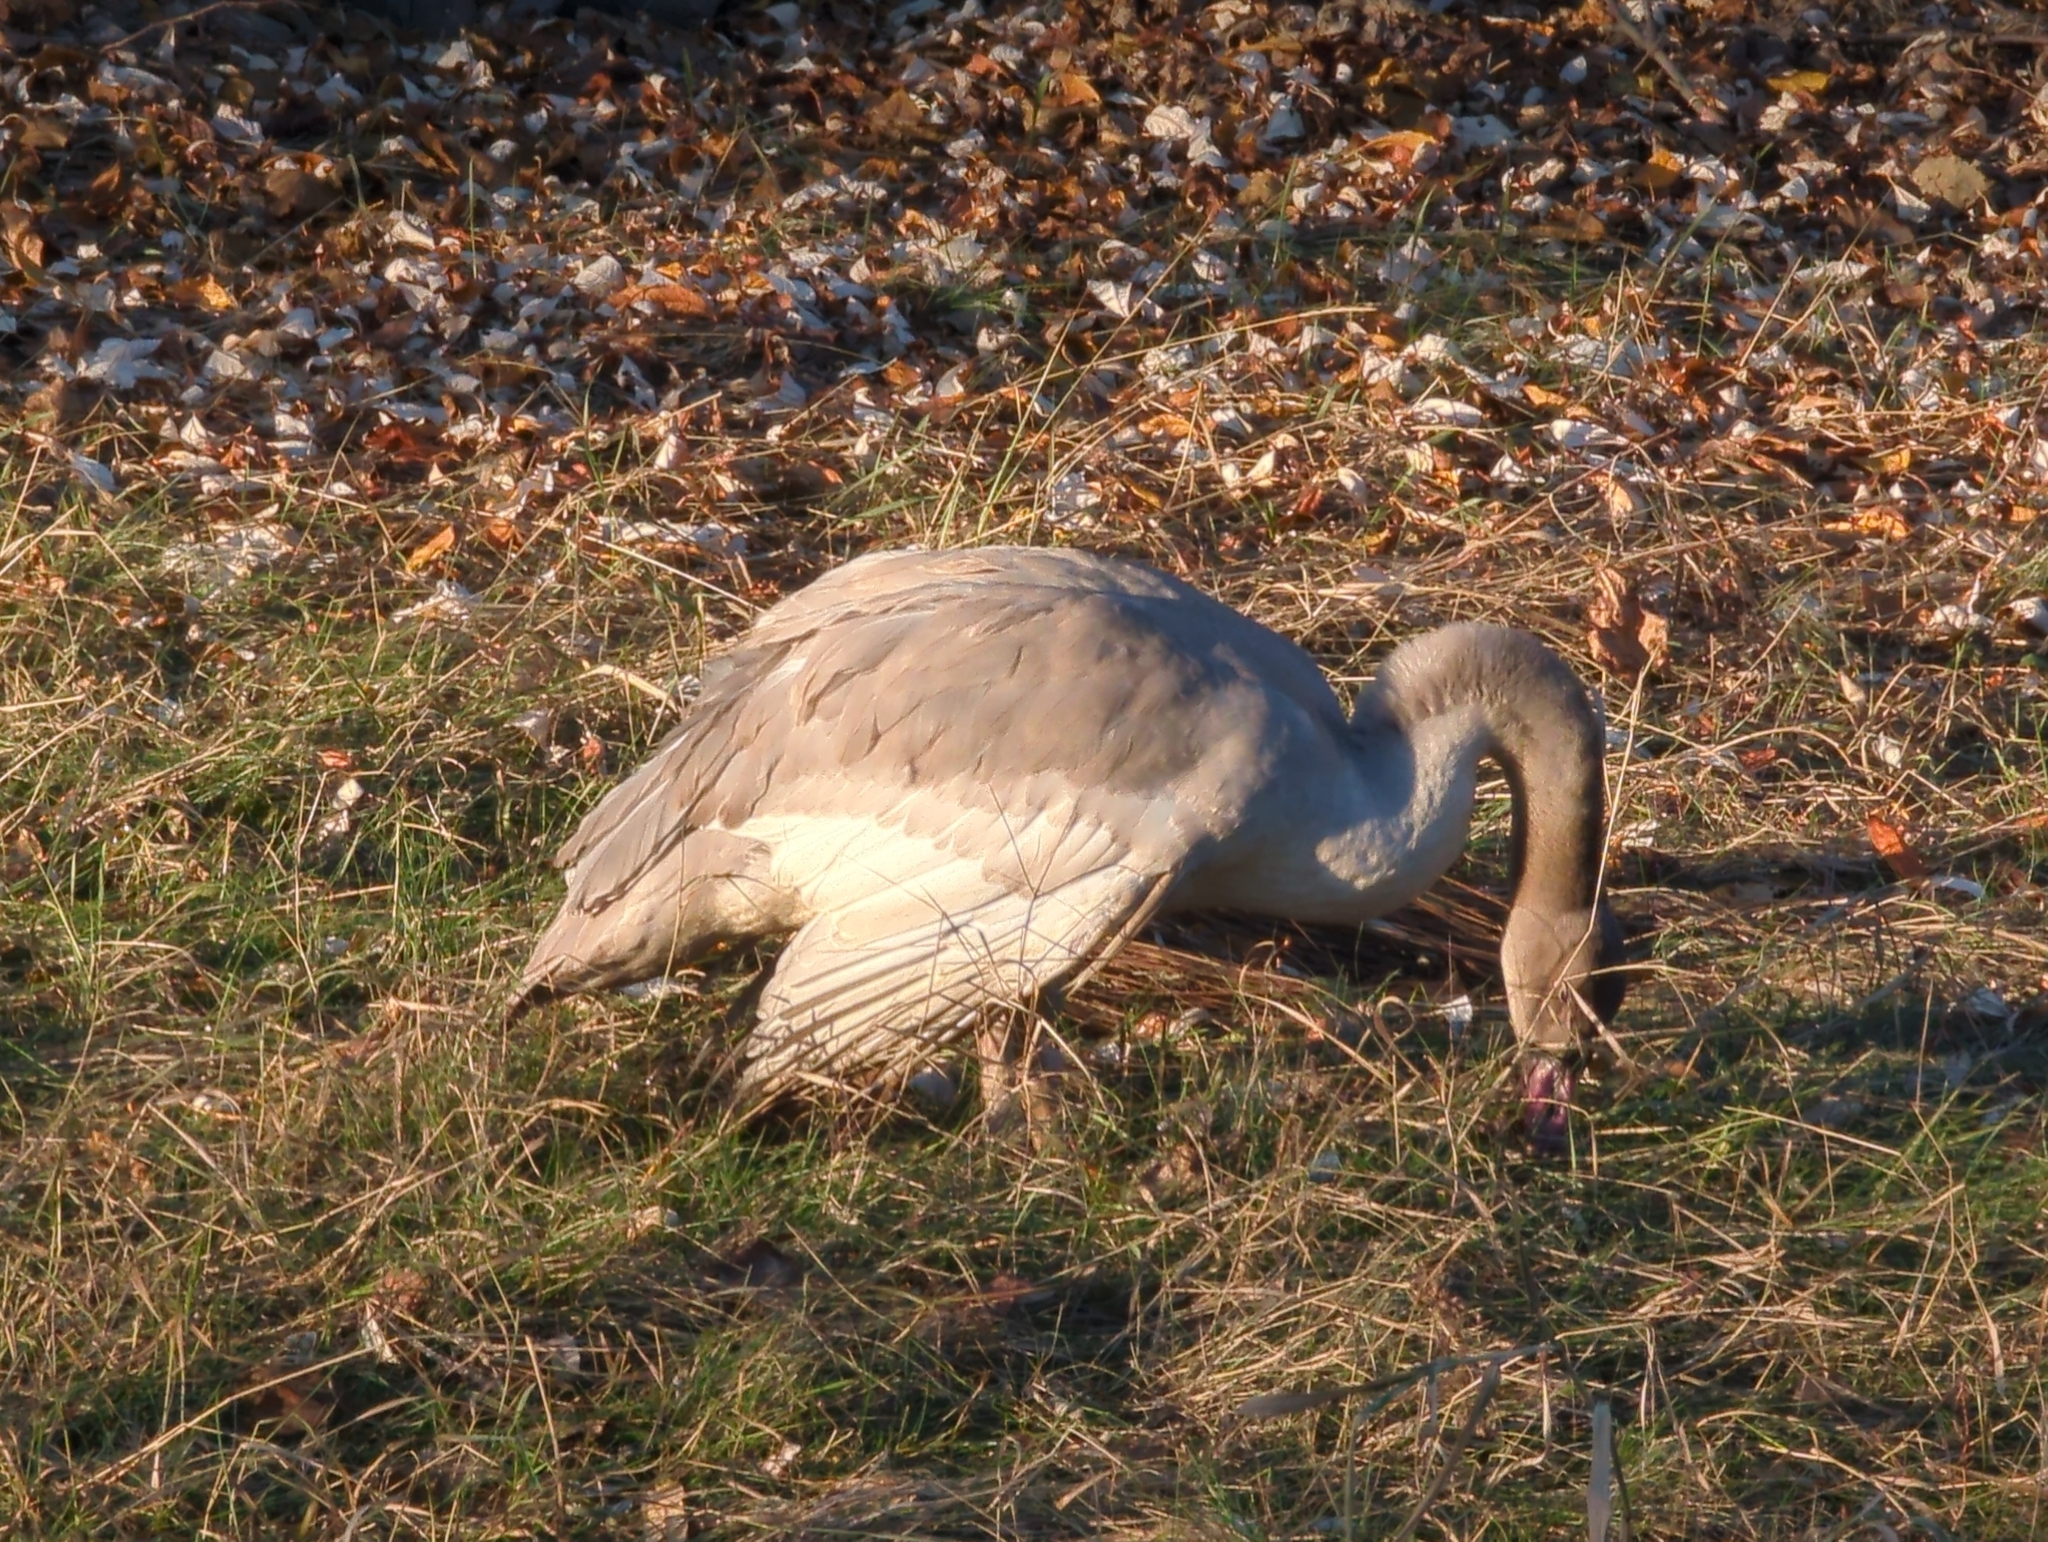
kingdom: Animalia
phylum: Chordata
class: Aves
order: Anseriformes
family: Anatidae
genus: Cygnus
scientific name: Cygnus buccinator
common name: Trumpeter swan
